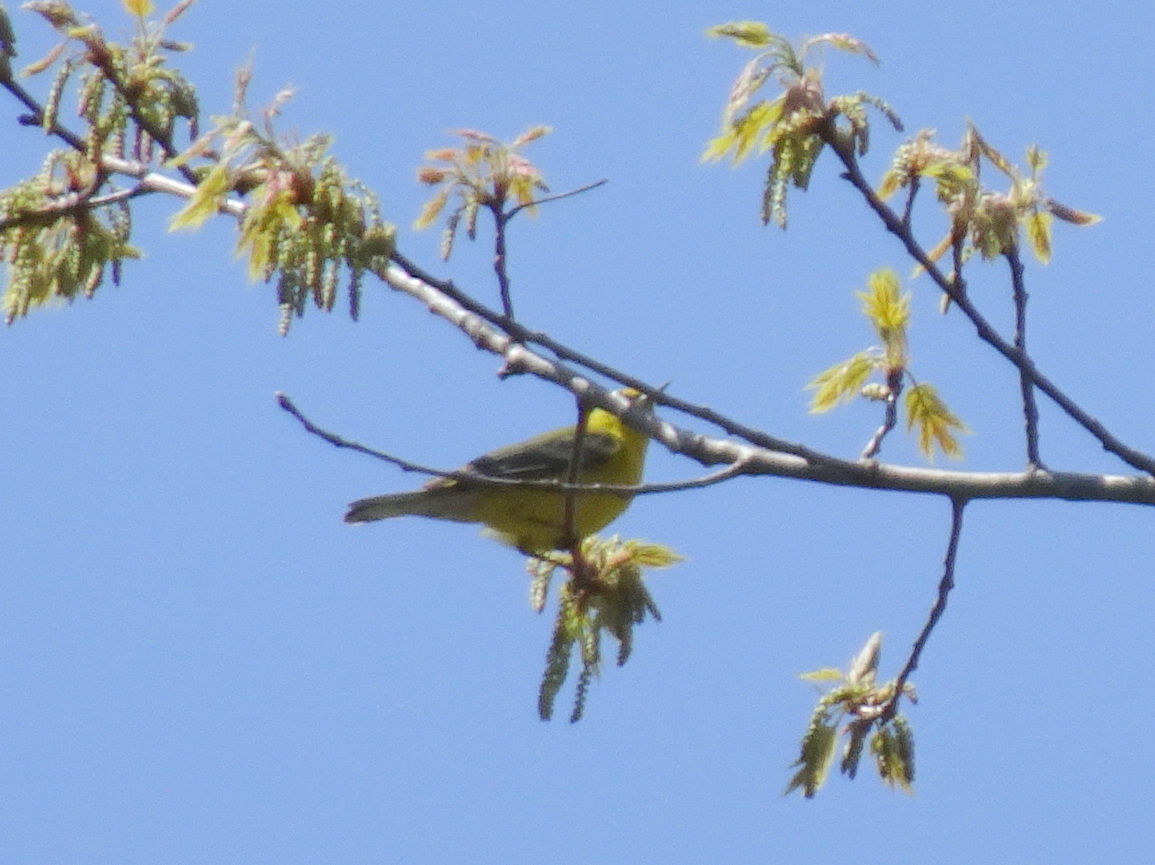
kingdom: Animalia
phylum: Chordata
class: Aves
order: Passeriformes
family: Parulidae
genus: Vermivora
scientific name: Vermivora cyanoptera
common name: Blue-winged warbler
